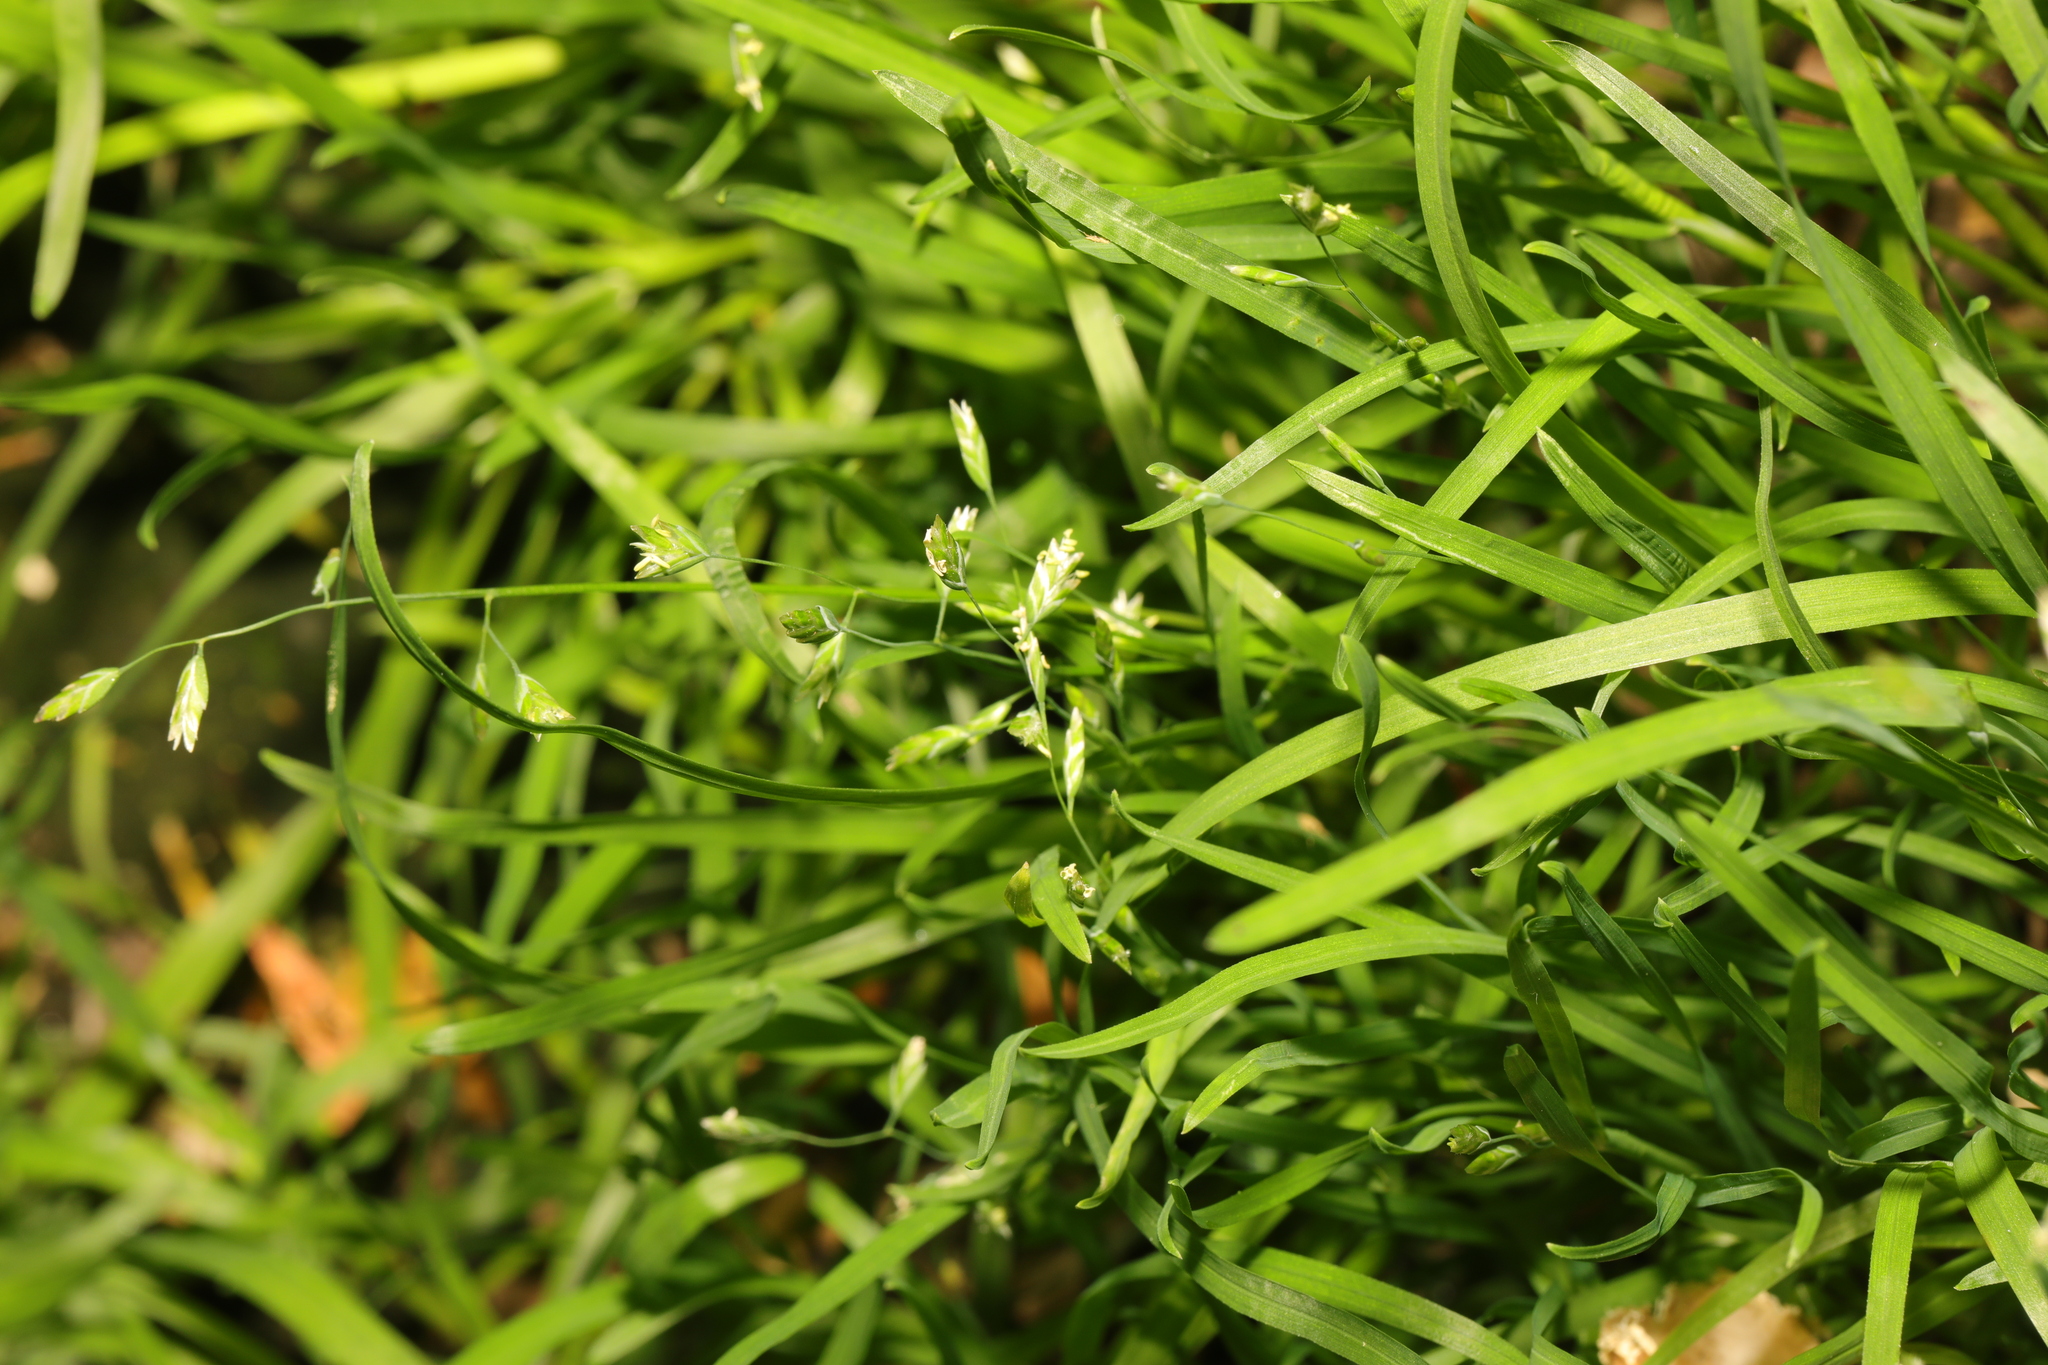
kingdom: Plantae
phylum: Tracheophyta
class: Liliopsida
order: Poales
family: Poaceae
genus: Poa
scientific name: Poa annua
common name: Annual bluegrass
